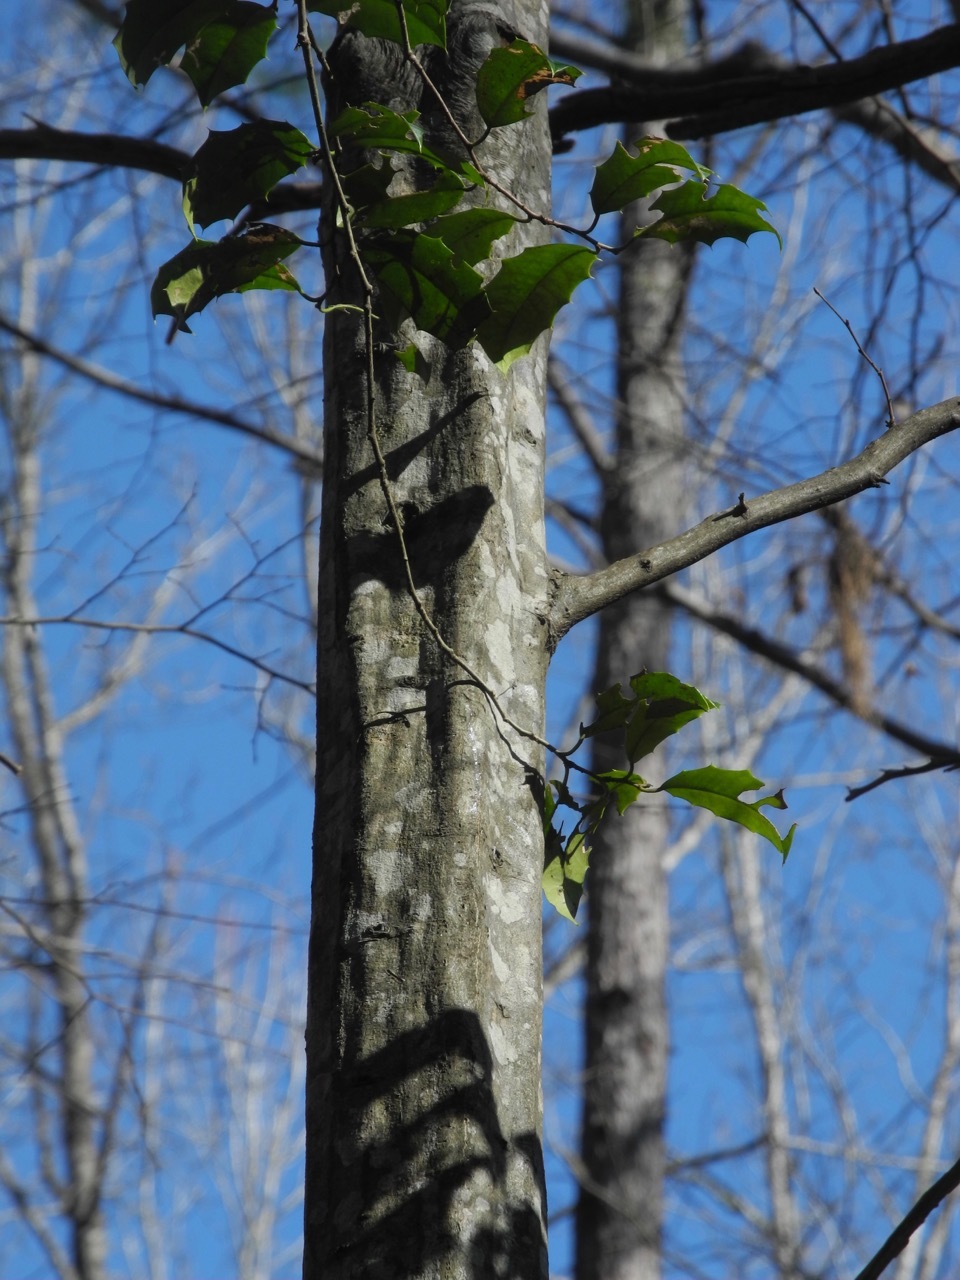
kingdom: Plantae
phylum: Tracheophyta
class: Magnoliopsida
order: Fagales
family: Betulaceae
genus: Carpinus
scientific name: Carpinus caroliniana
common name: American hornbeam
